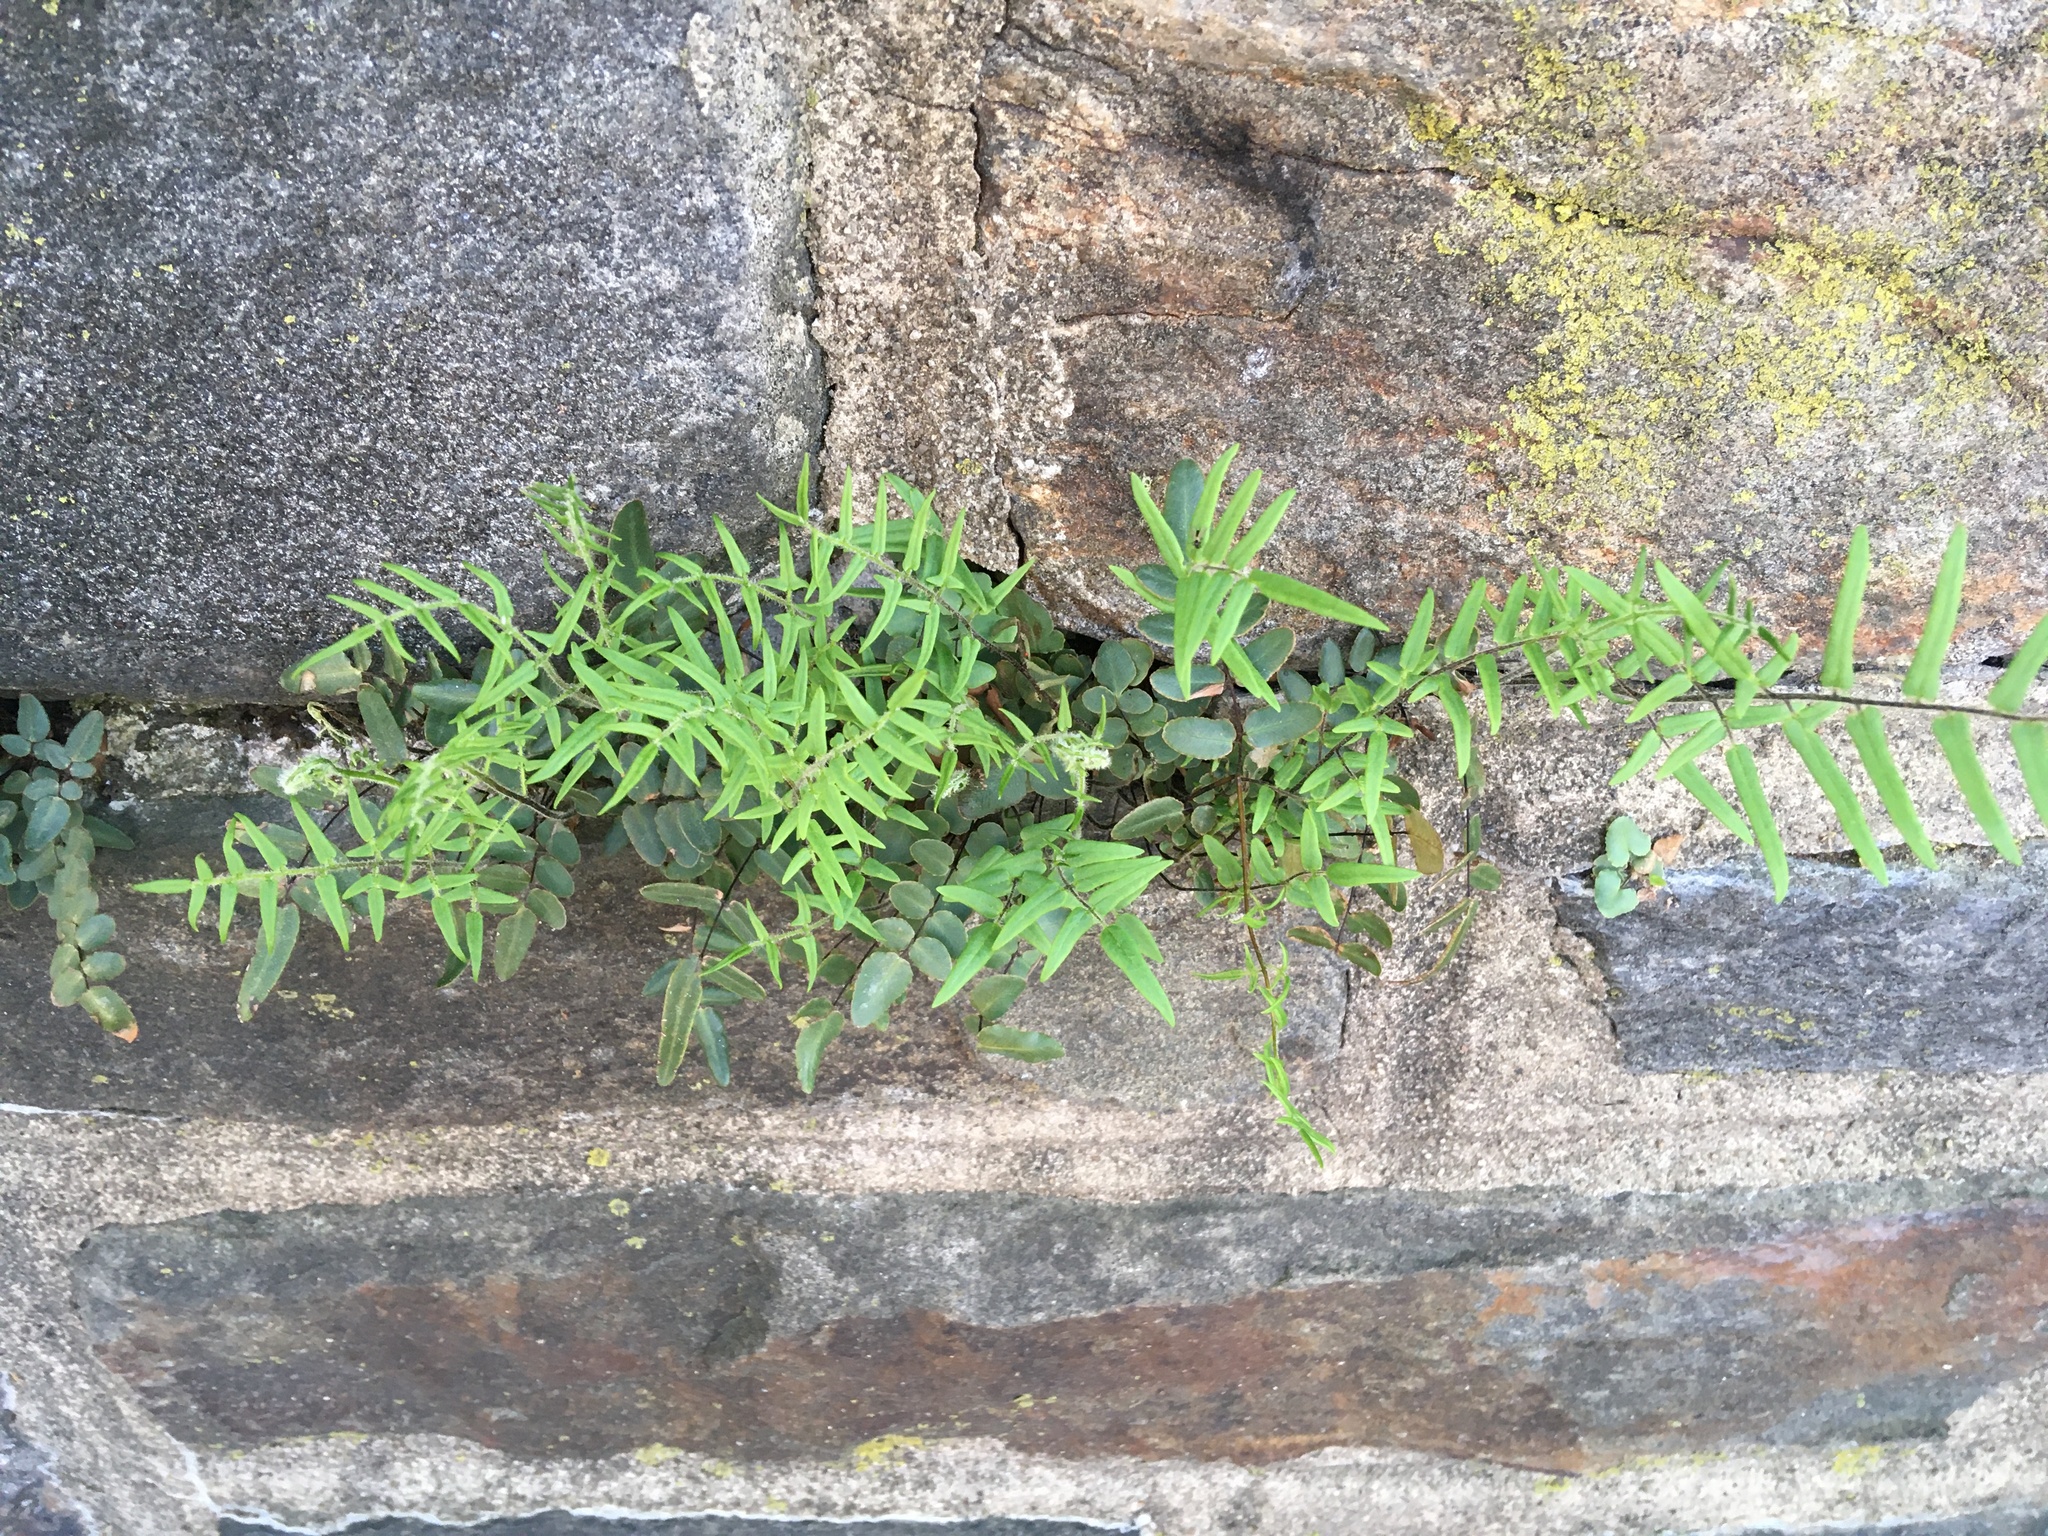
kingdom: Plantae
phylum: Tracheophyta
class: Polypodiopsida
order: Polypodiales
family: Pteridaceae
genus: Pellaea
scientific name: Pellaea atropurpurea
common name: Hairy cliffbrake
